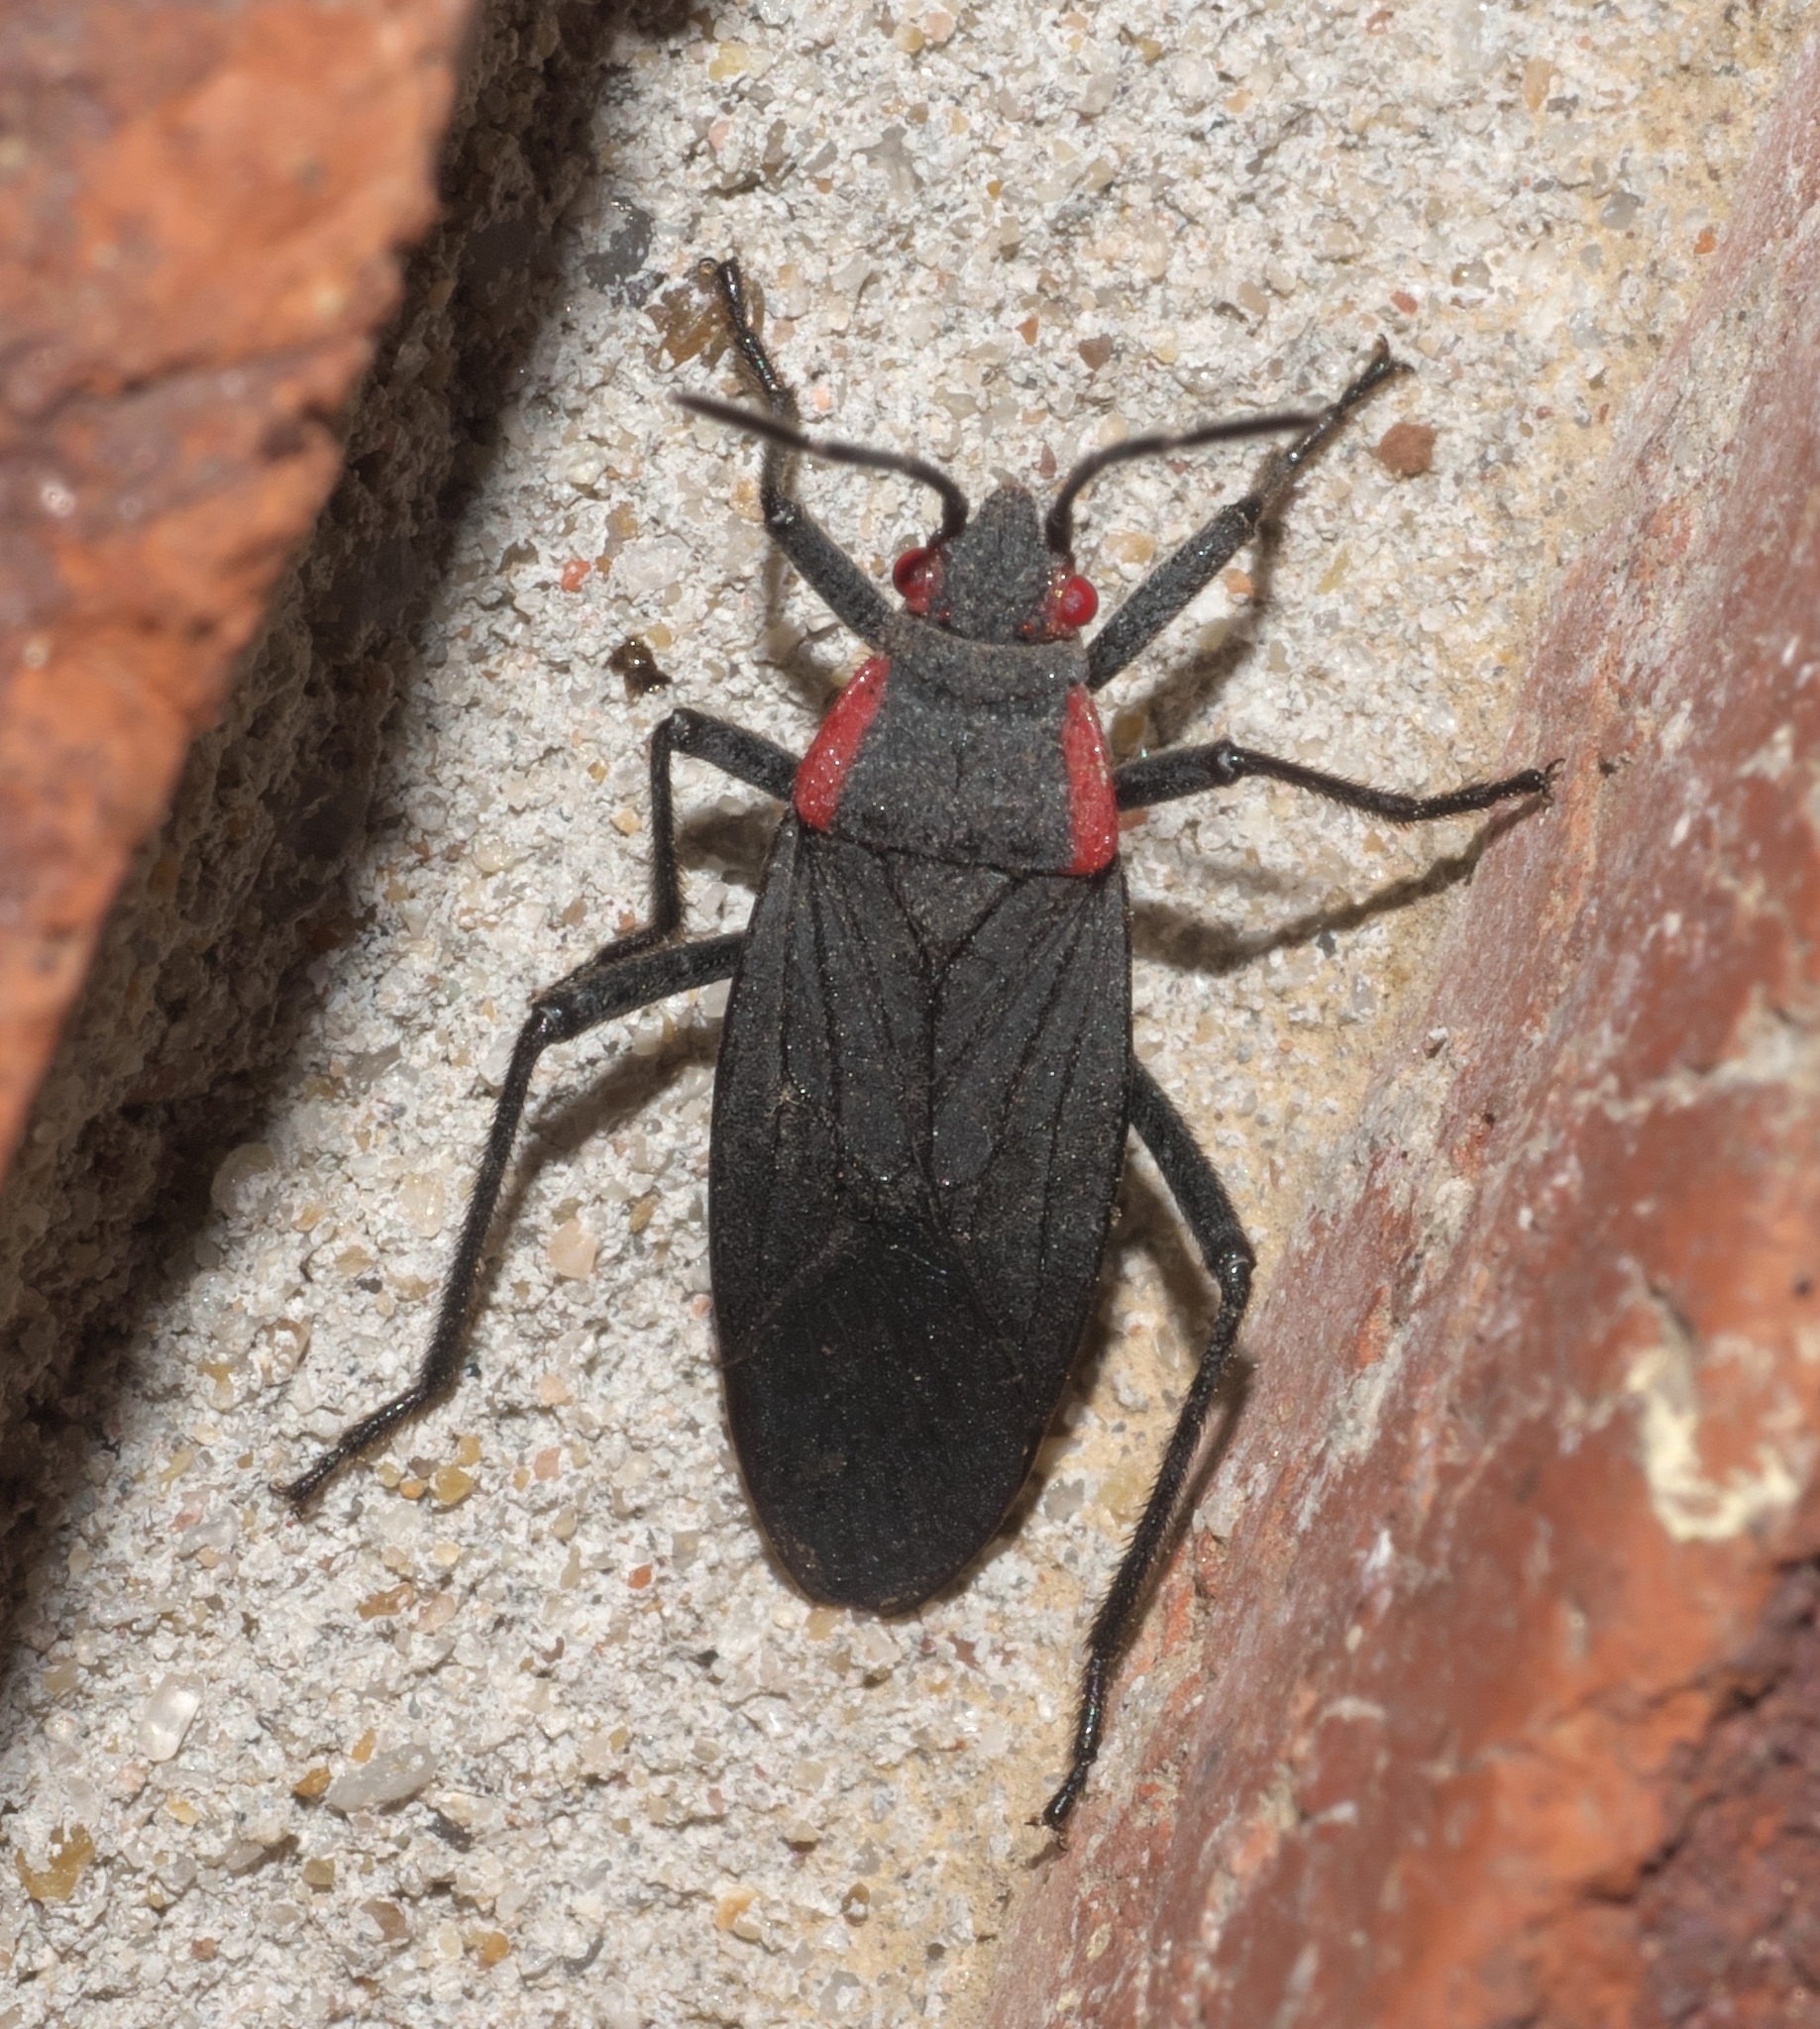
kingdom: Animalia
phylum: Arthropoda
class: Insecta
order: Hemiptera
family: Rhopalidae
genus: Jadera
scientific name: Jadera haematoloma
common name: Red-shouldered bug
